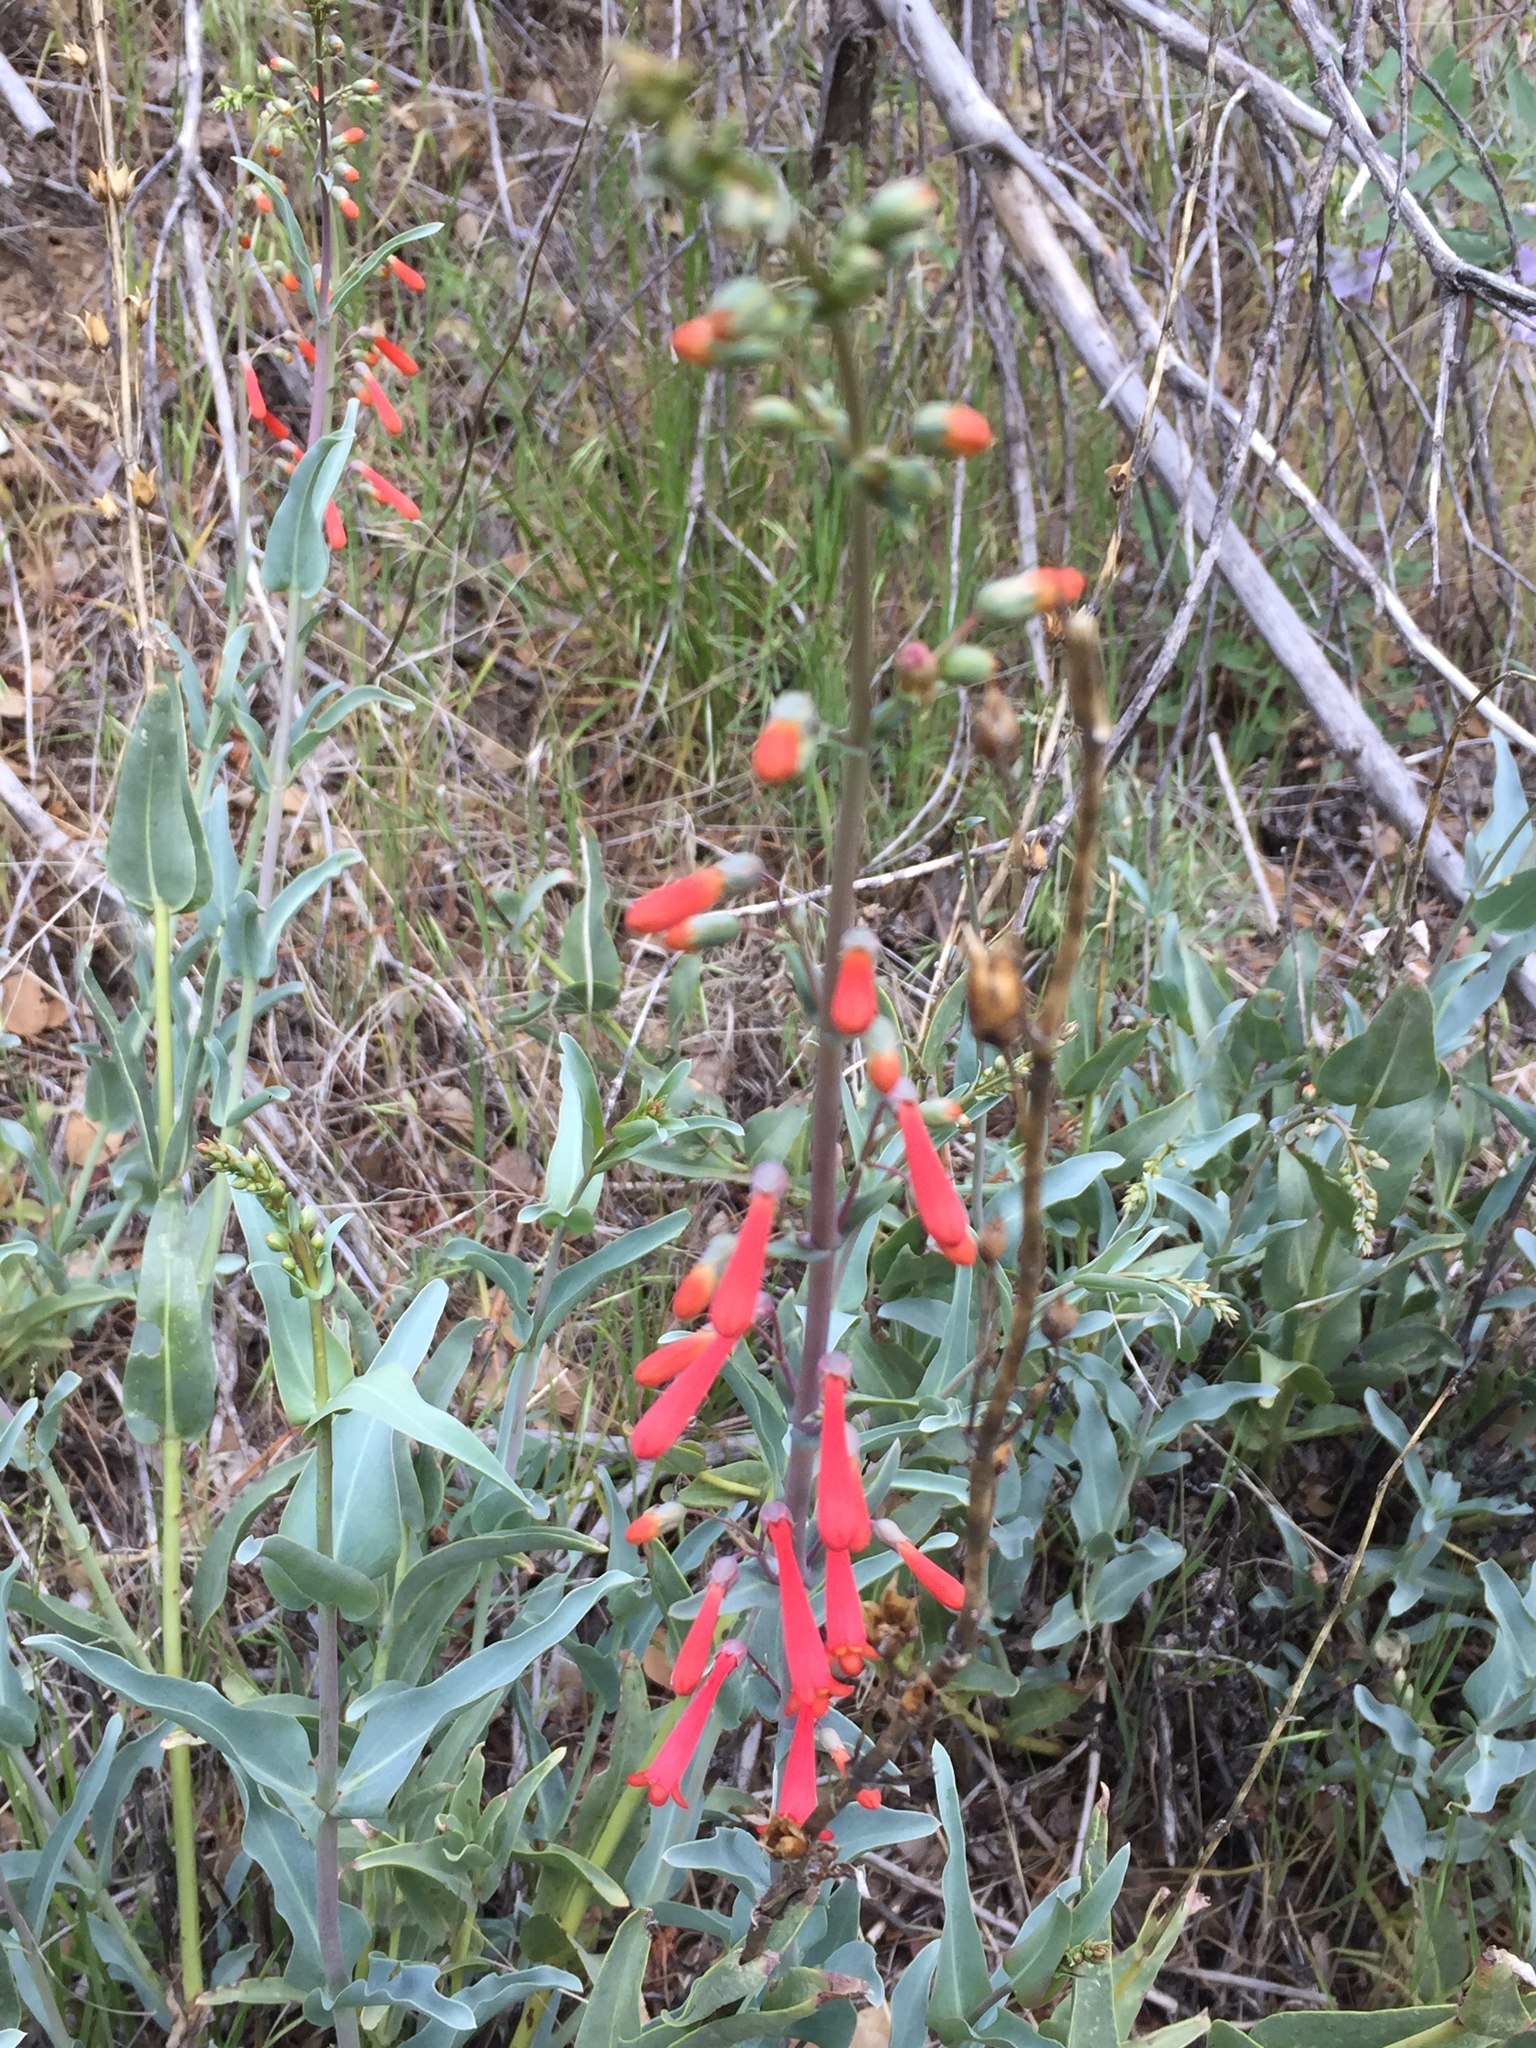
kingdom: Plantae
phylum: Tracheophyta
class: Magnoliopsida
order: Lamiales
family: Plantaginaceae
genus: Penstemon
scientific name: Penstemon centranthifolius
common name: Scarlet bugler
